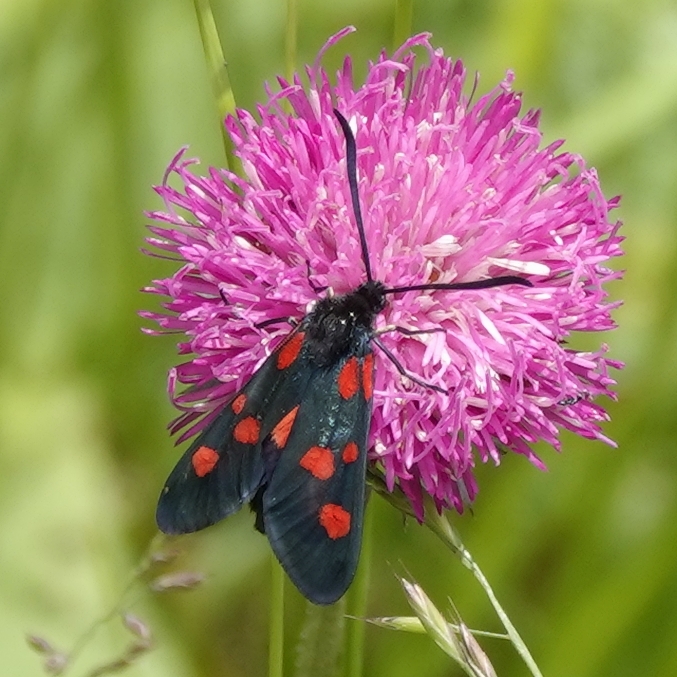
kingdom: Animalia
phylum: Arthropoda
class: Insecta
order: Lepidoptera
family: Zygaenidae
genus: Zygaena
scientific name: Zygaena lonicerae
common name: Narrow-bordered five-spot burnet
